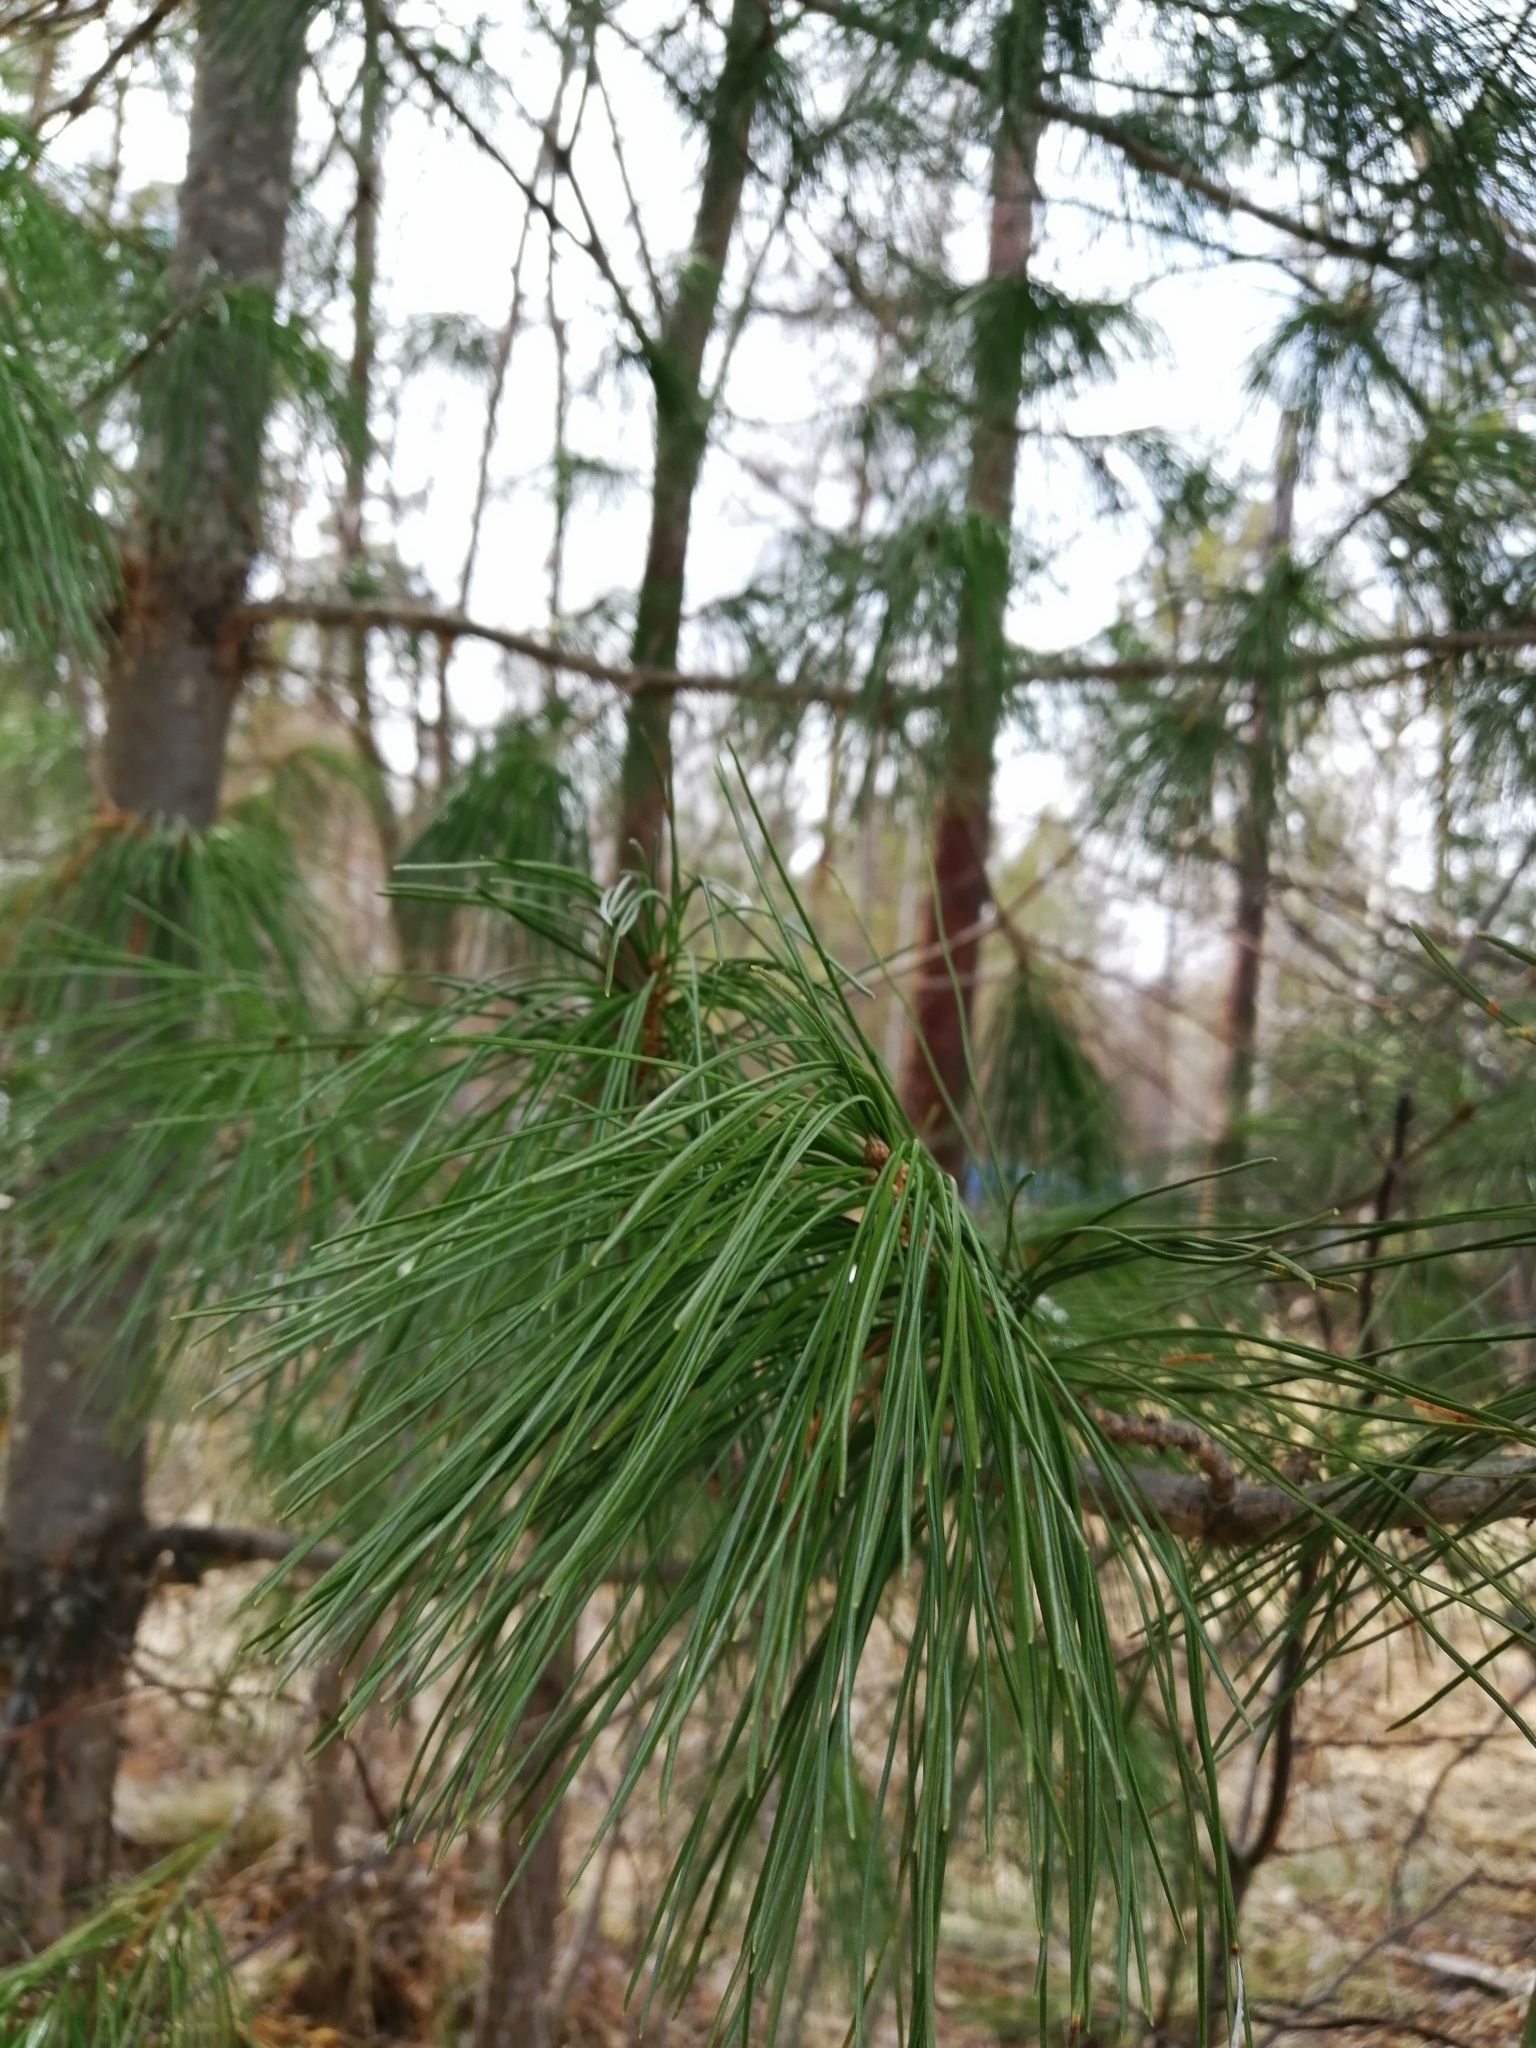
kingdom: Plantae
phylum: Tracheophyta
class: Pinopsida
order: Pinales
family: Pinaceae
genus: Pinus
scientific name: Pinus sibirica
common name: Siberian pine
